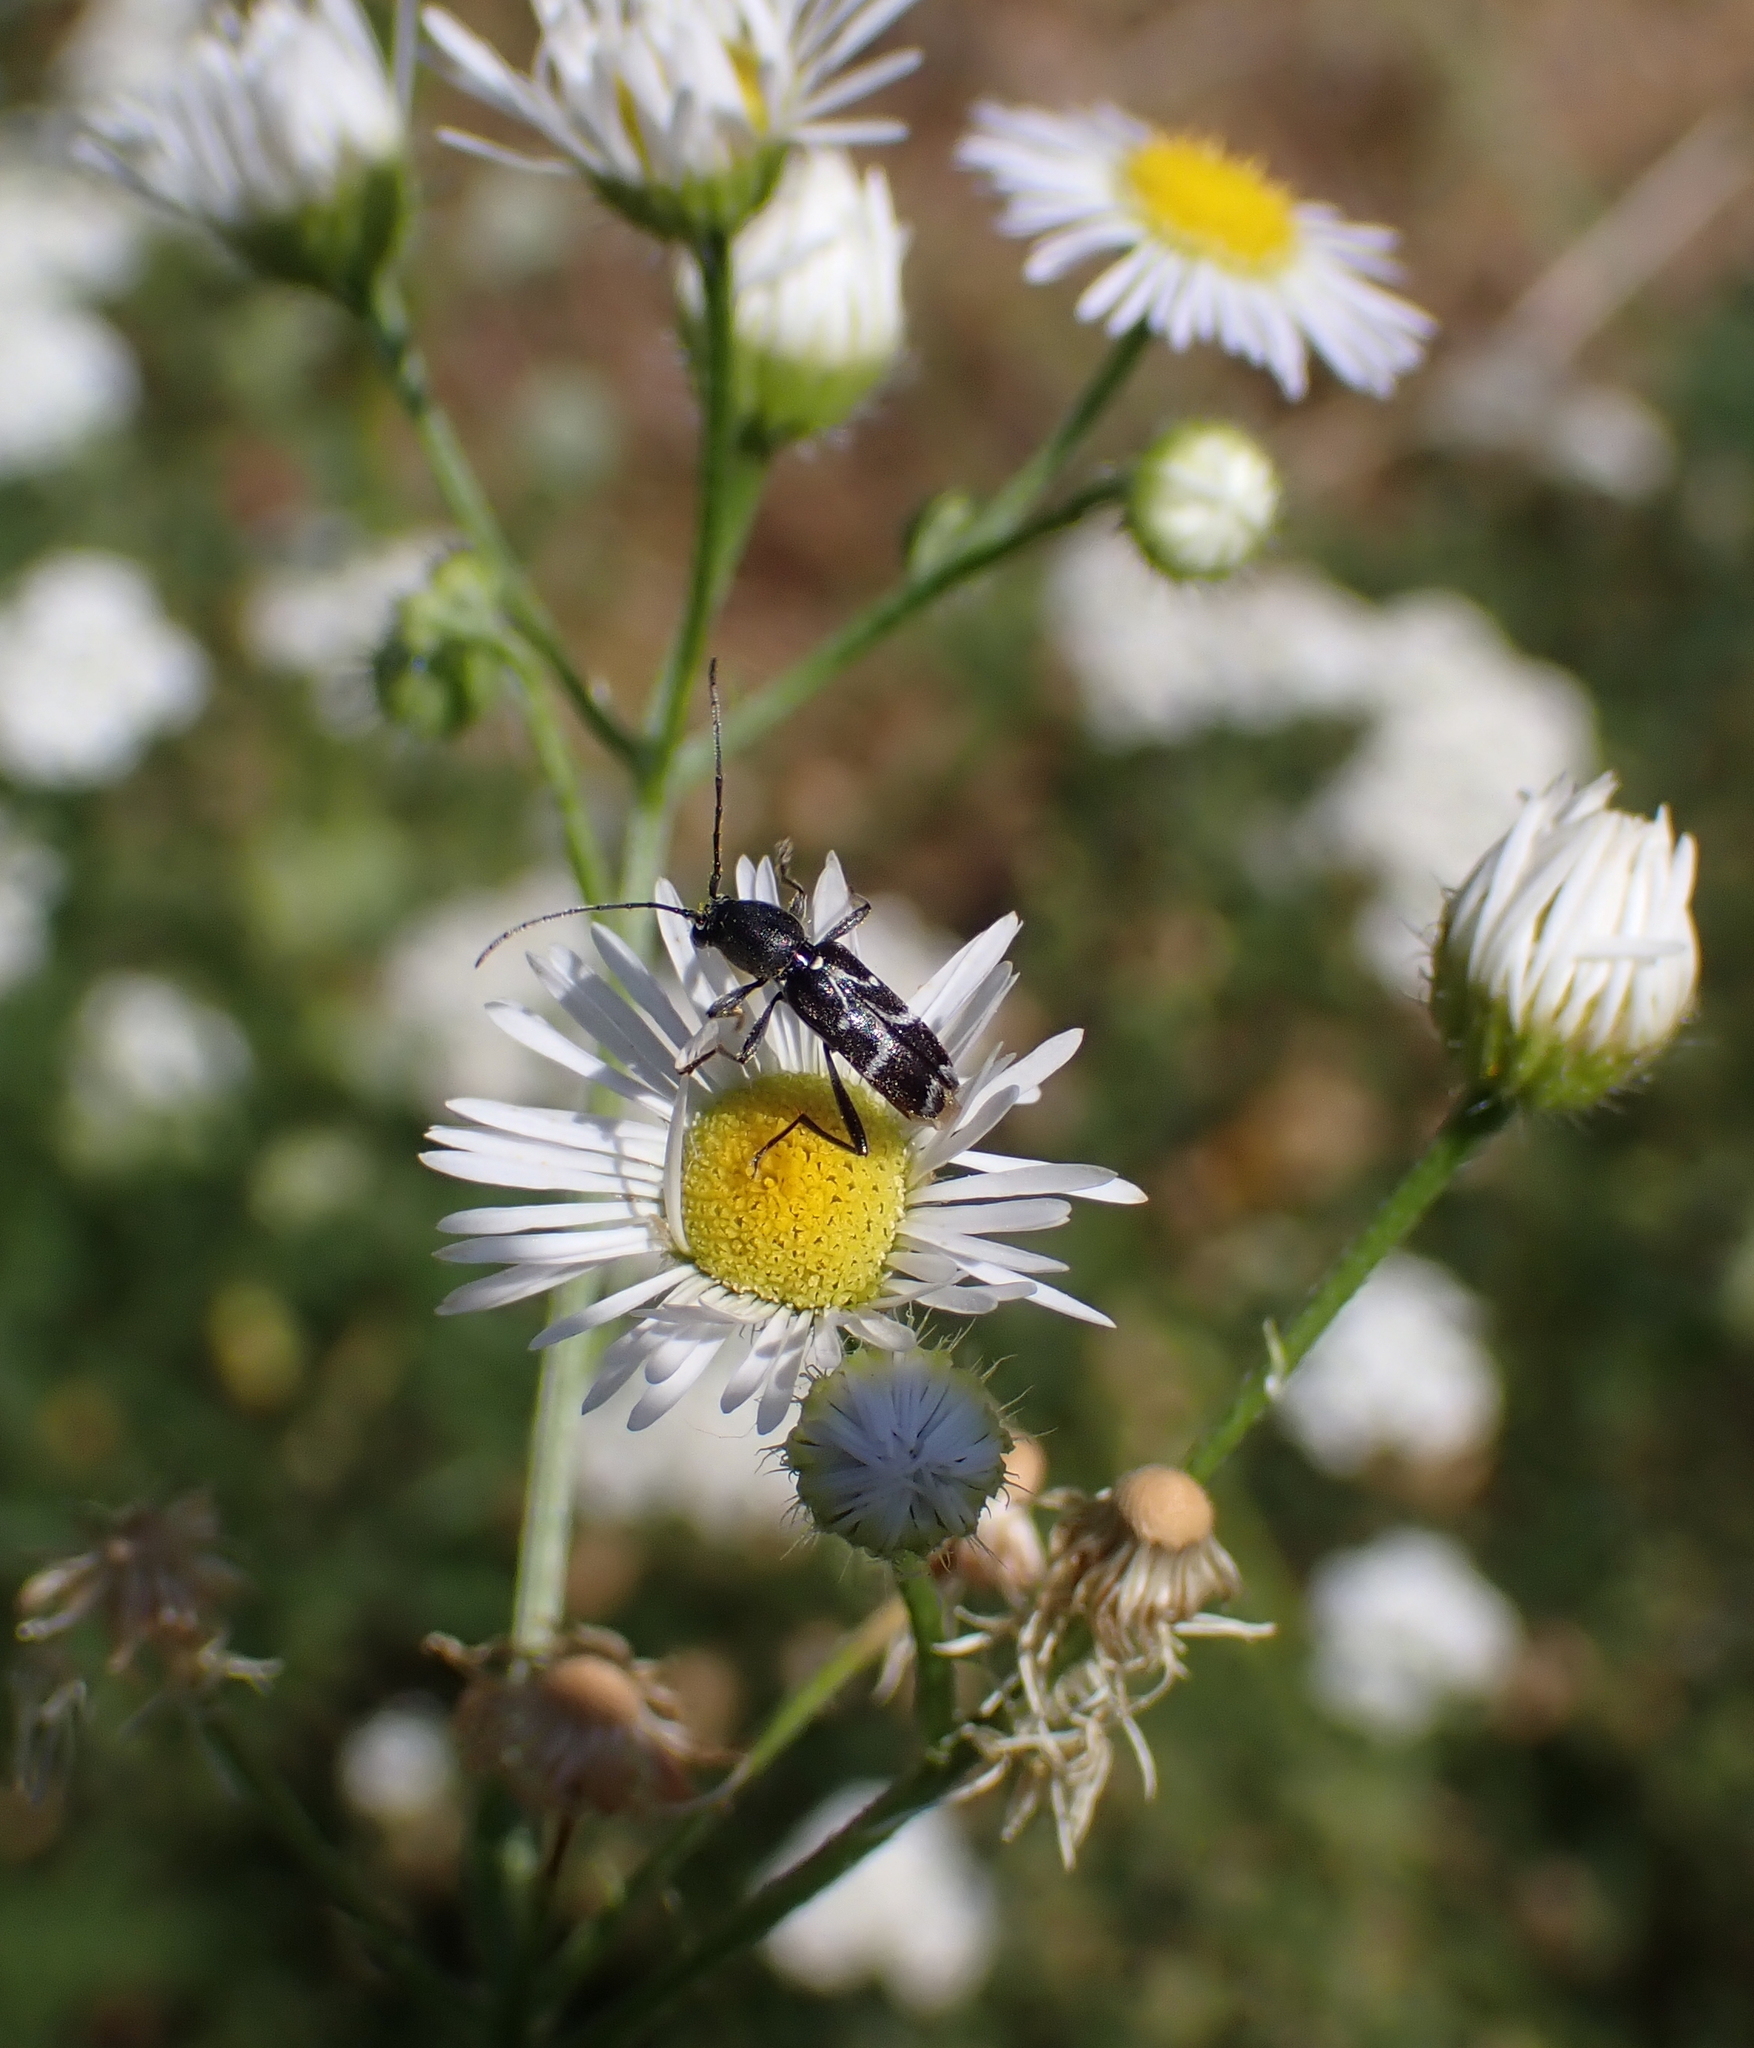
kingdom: Animalia
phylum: Arthropoda
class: Insecta
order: Coleoptera
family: Cerambycidae
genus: Chlorophorus
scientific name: Chlorophorus sartor
